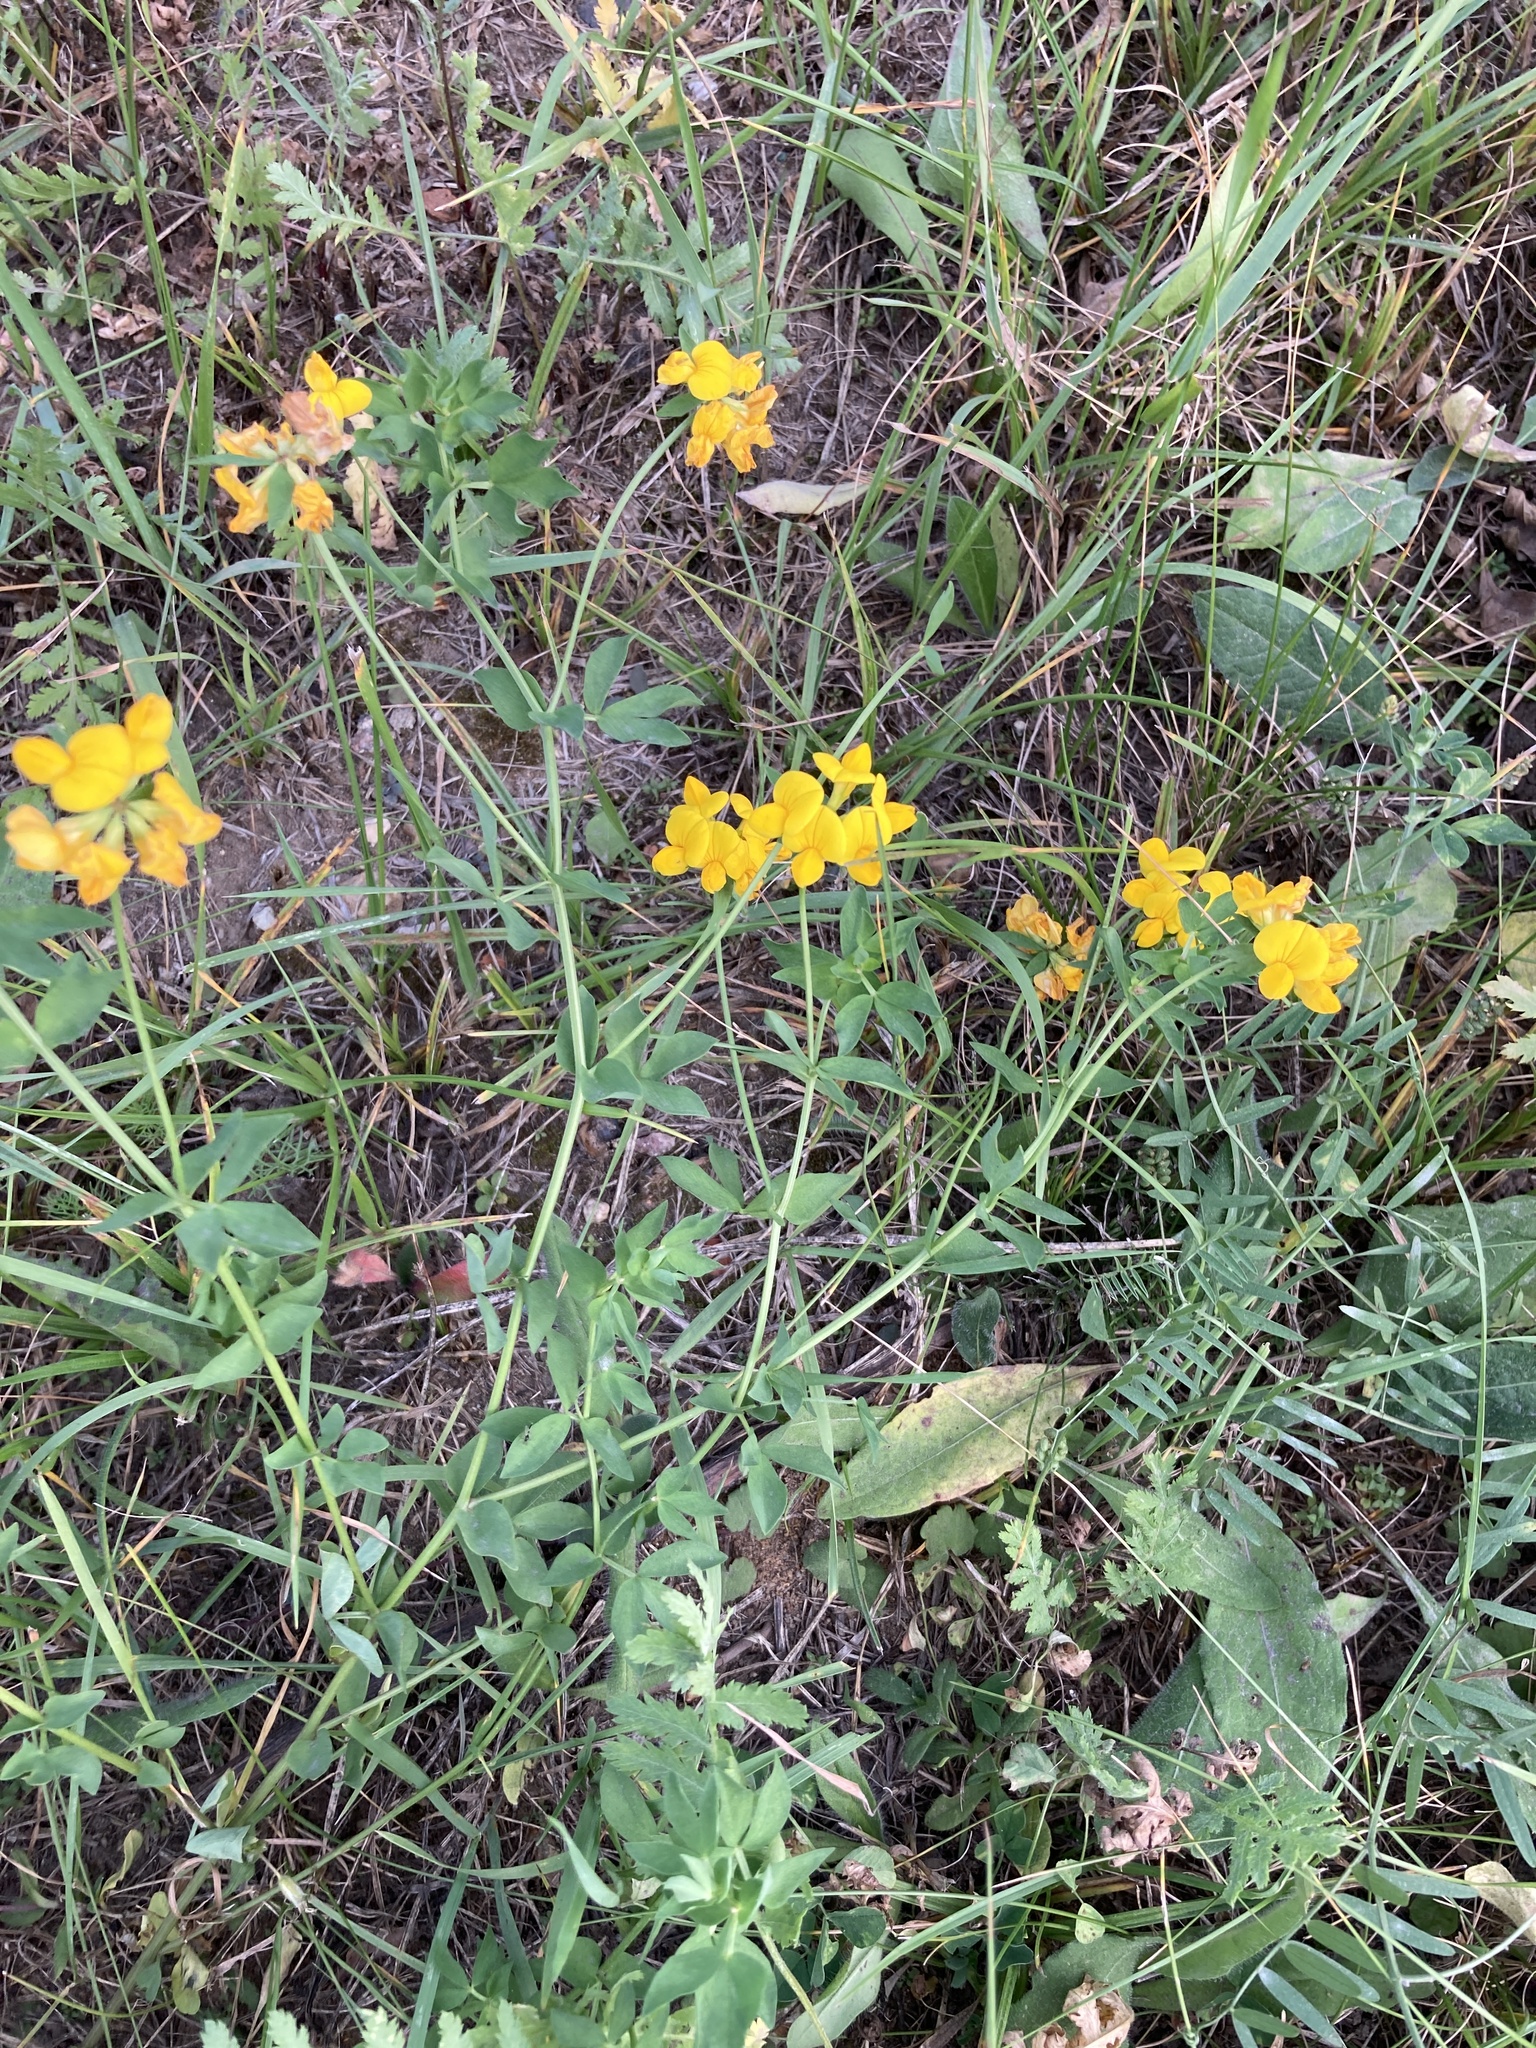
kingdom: Plantae
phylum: Tracheophyta
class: Magnoliopsida
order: Fabales
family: Fabaceae
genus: Lotus
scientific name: Lotus corniculatus
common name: Common bird's-foot-trefoil
